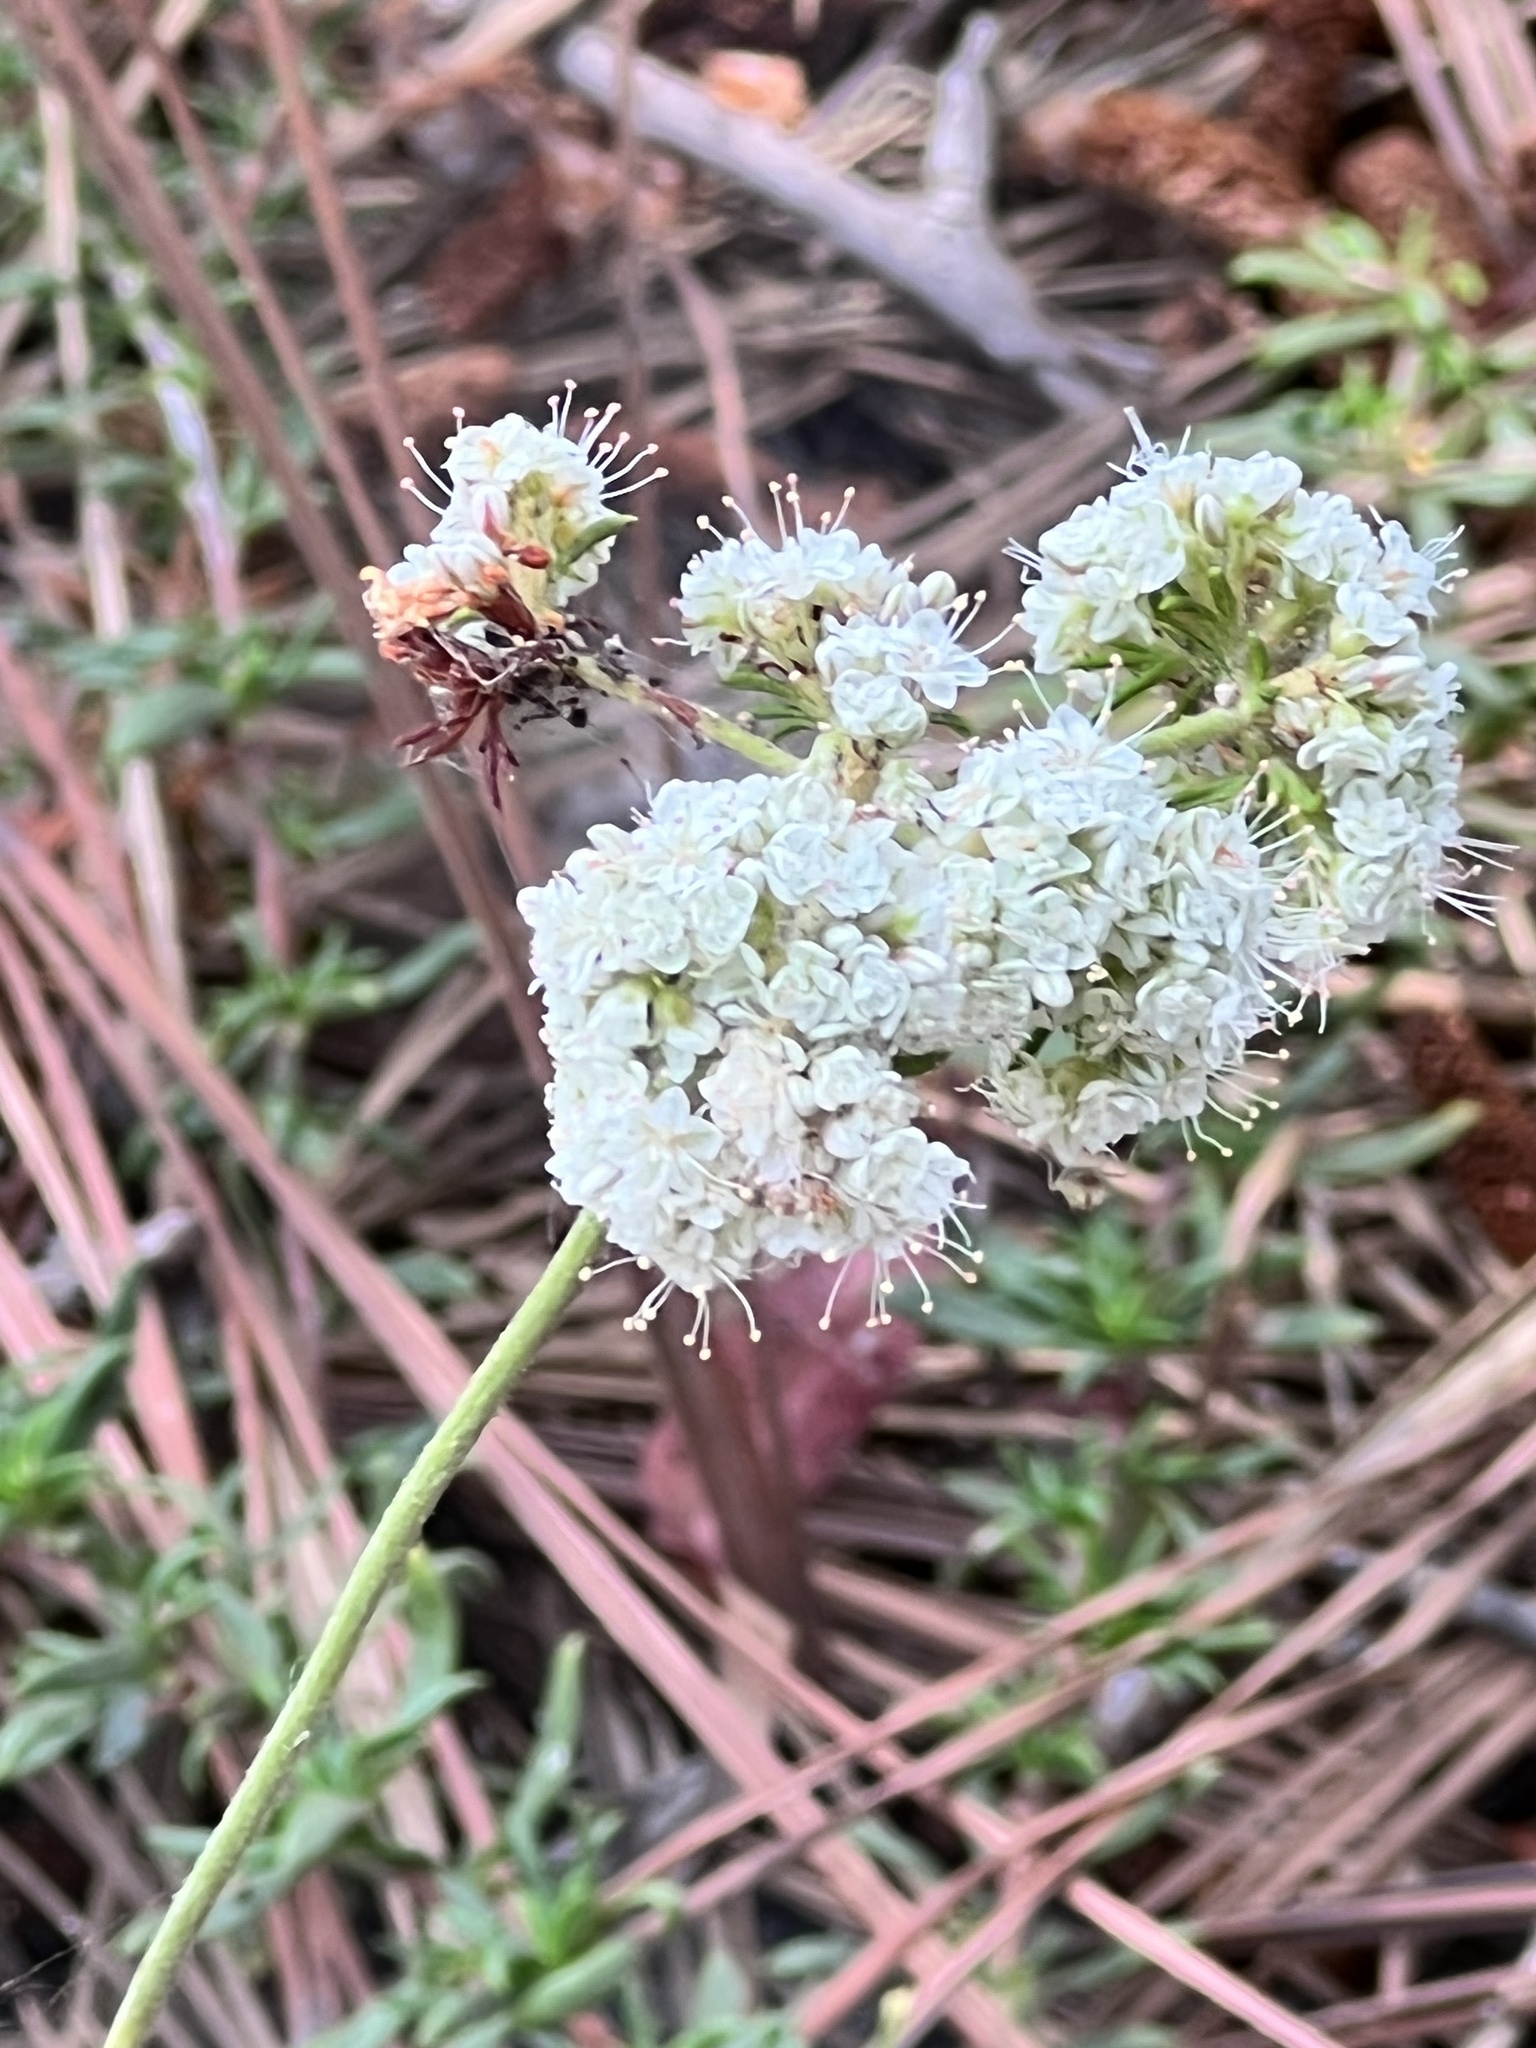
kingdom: Plantae
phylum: Tracheophyta
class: Magnoliopsida
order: Caryophyllales
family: Polygonaceae
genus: Eriogonum
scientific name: Eriogonum fasciculatum
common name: California wild buckwheat
